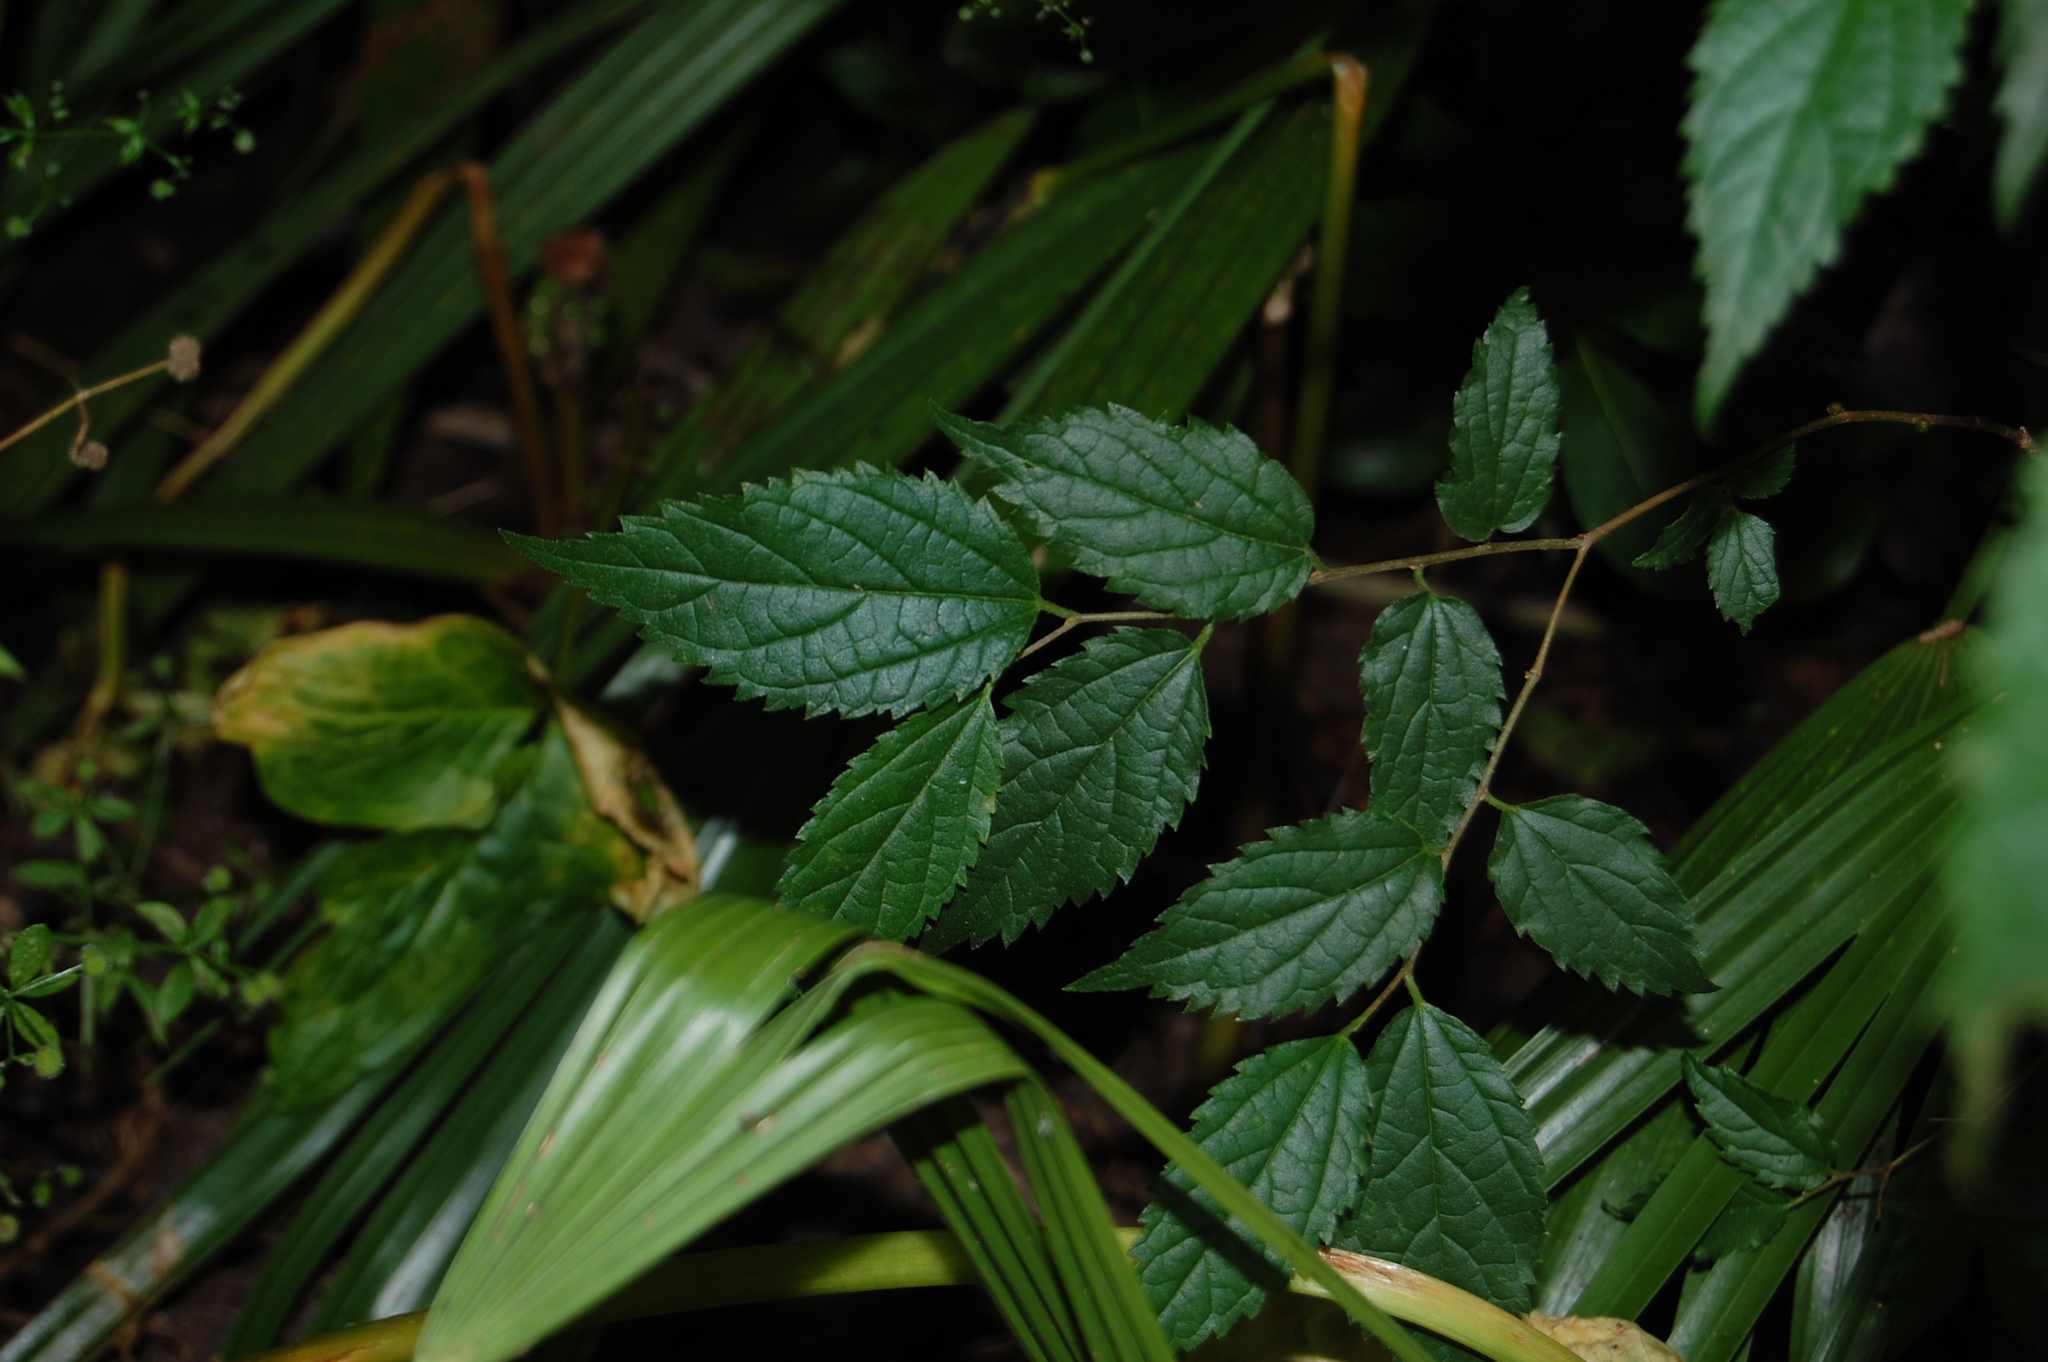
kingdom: Plantae
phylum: Tracheophyta
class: Magnoliopsida
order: Rosales
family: Cannabaceae
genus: Celtis
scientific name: Celtis australis
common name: European hackberry
